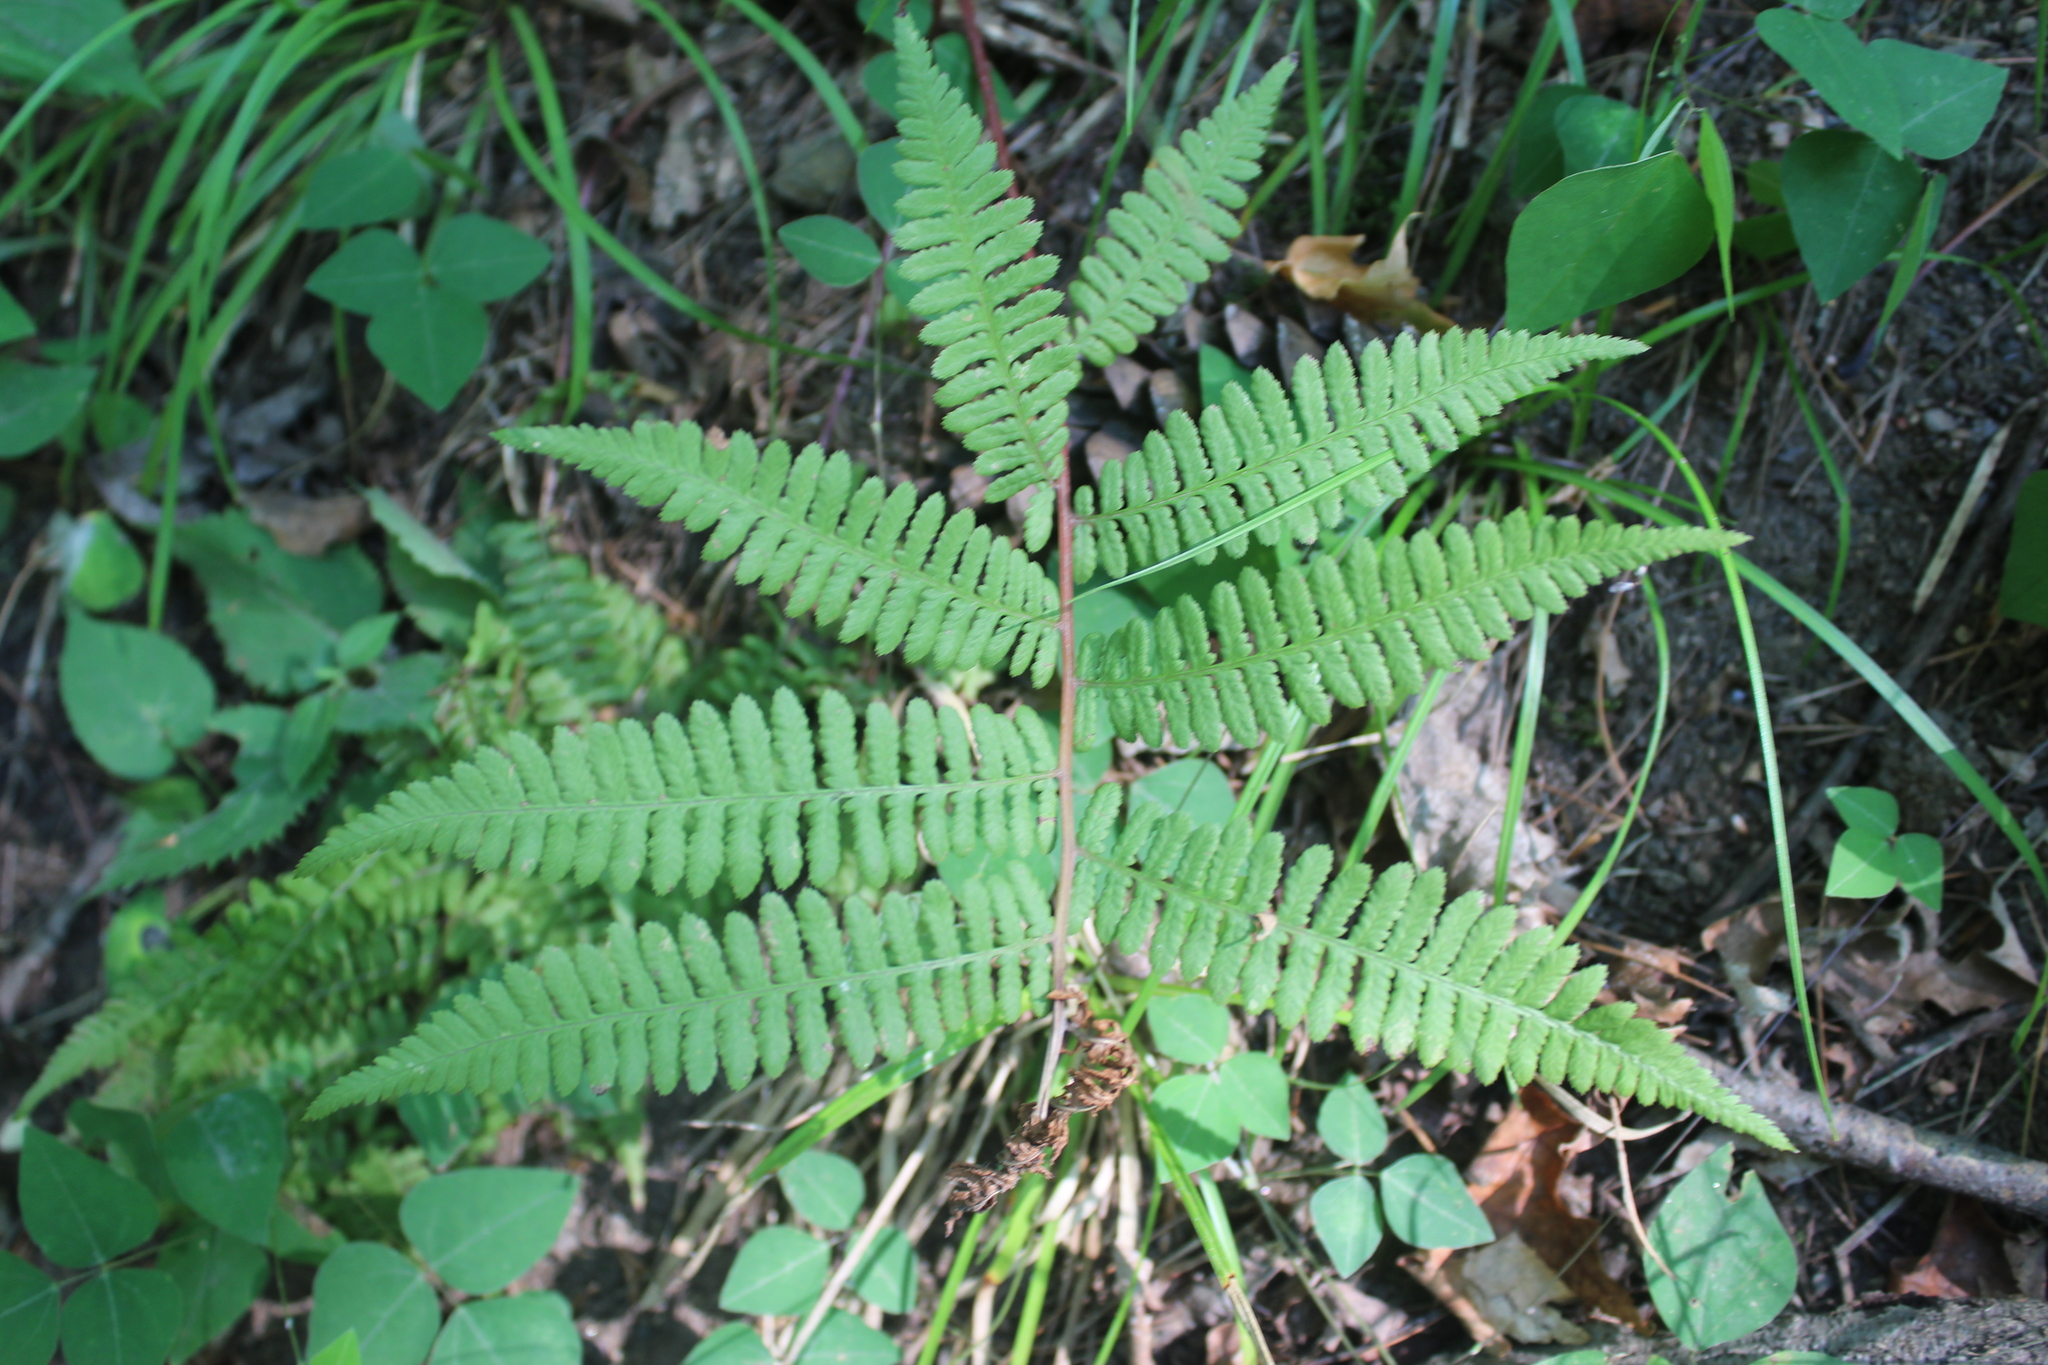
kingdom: Plantae
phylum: Tracheophyta
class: Polypodiopsida
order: Polypodiales
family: Athyriaceae
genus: Athyrium
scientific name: Athyrium angustum
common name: Northern lady fern
